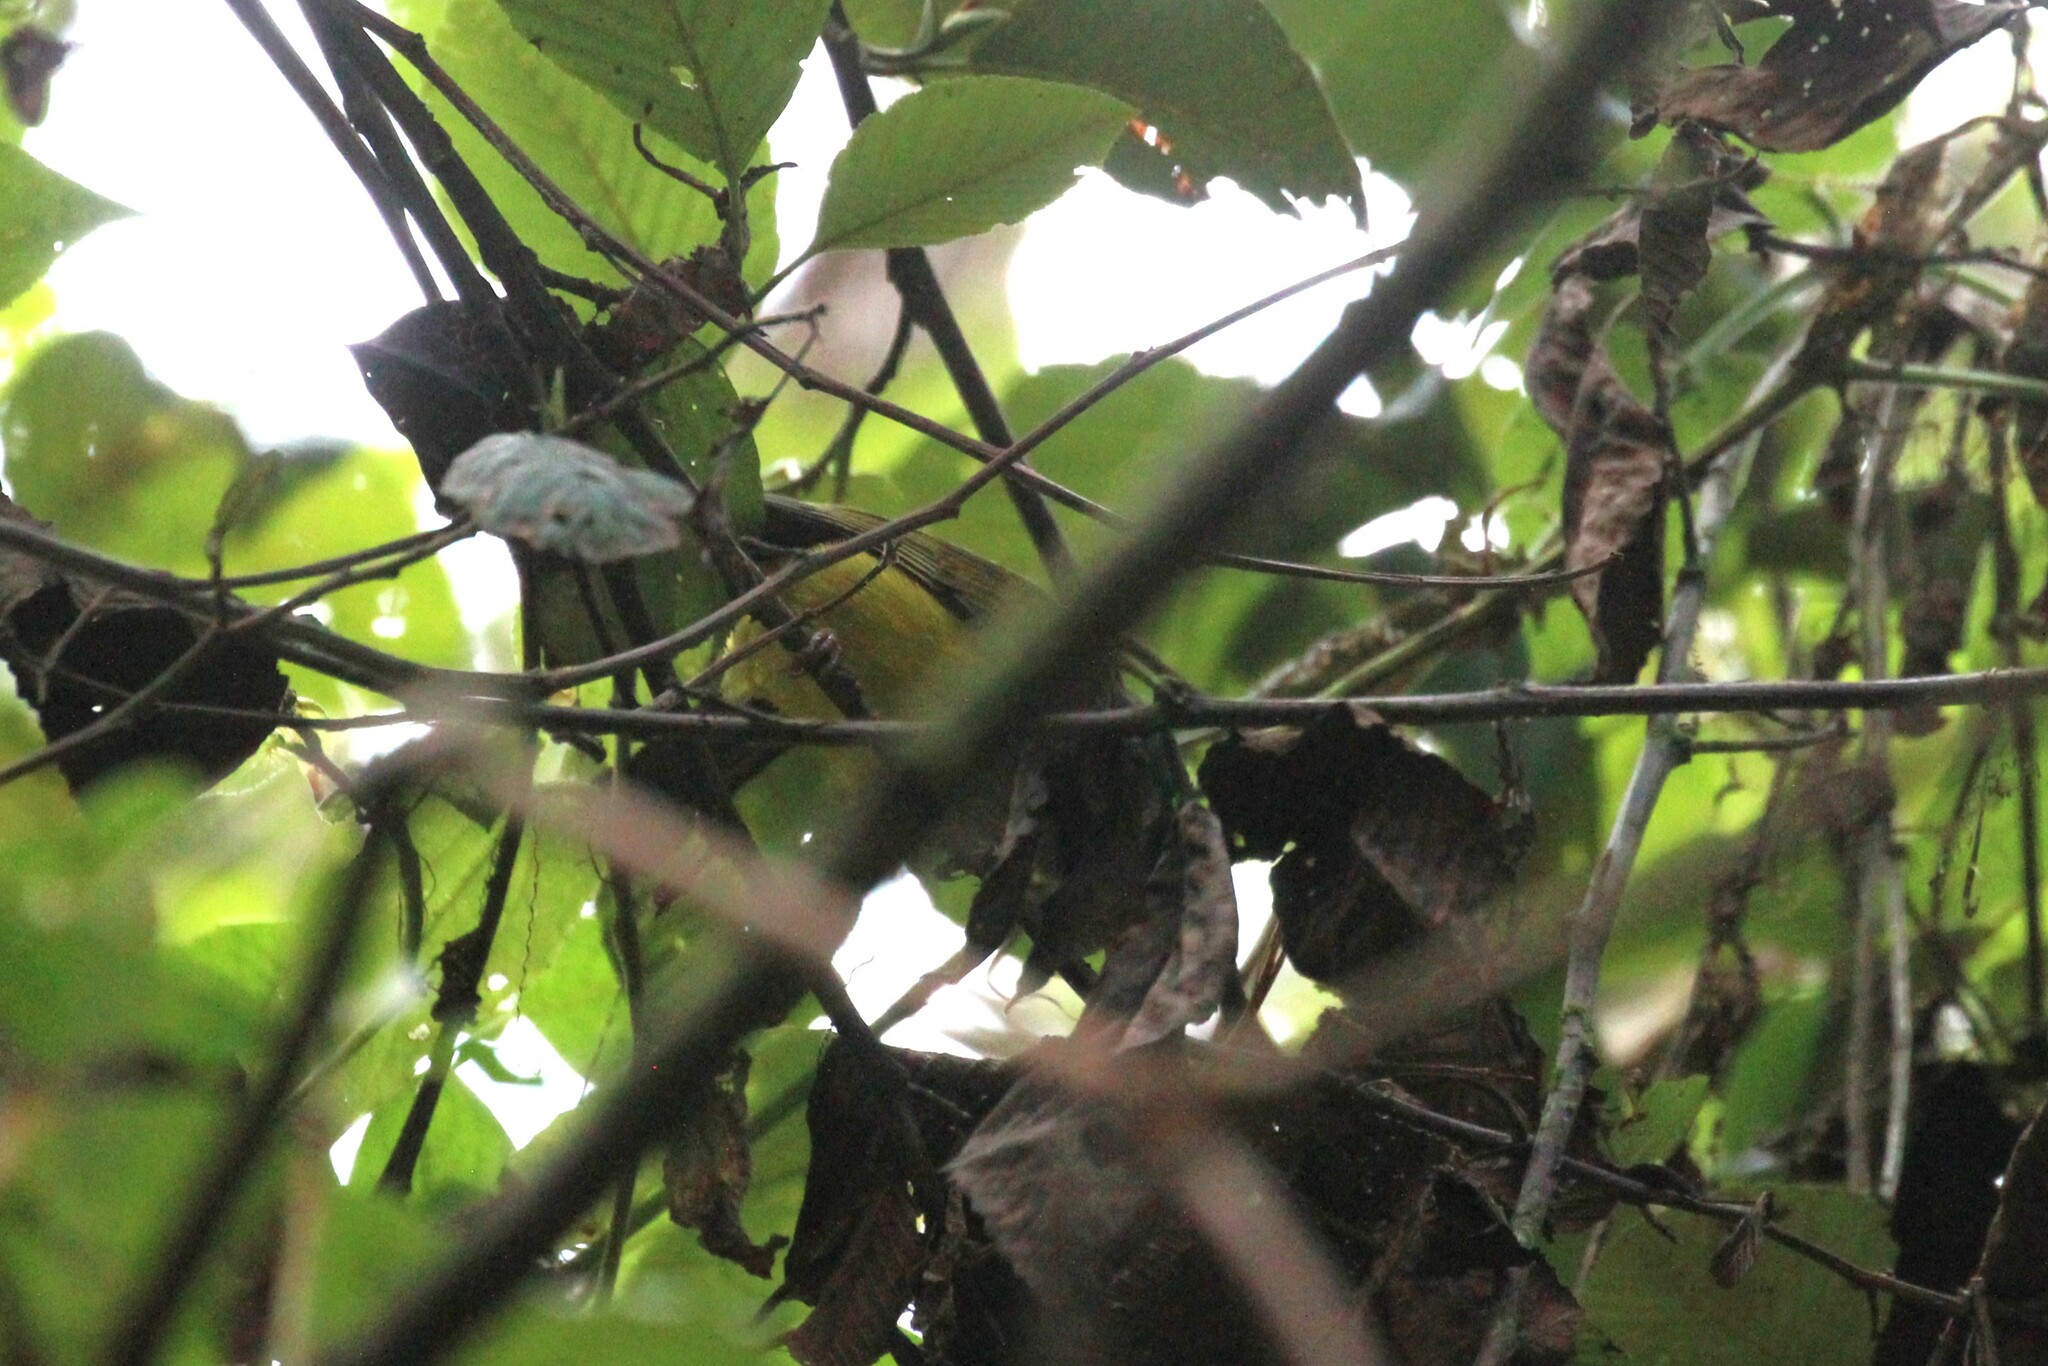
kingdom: Animalia
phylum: Chordata
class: Aves
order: Passeriformes
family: Thraupidae
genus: Cnemoscopus
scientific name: Cnemoscopus rubrirostris
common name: Grey-hooded bush tanager
